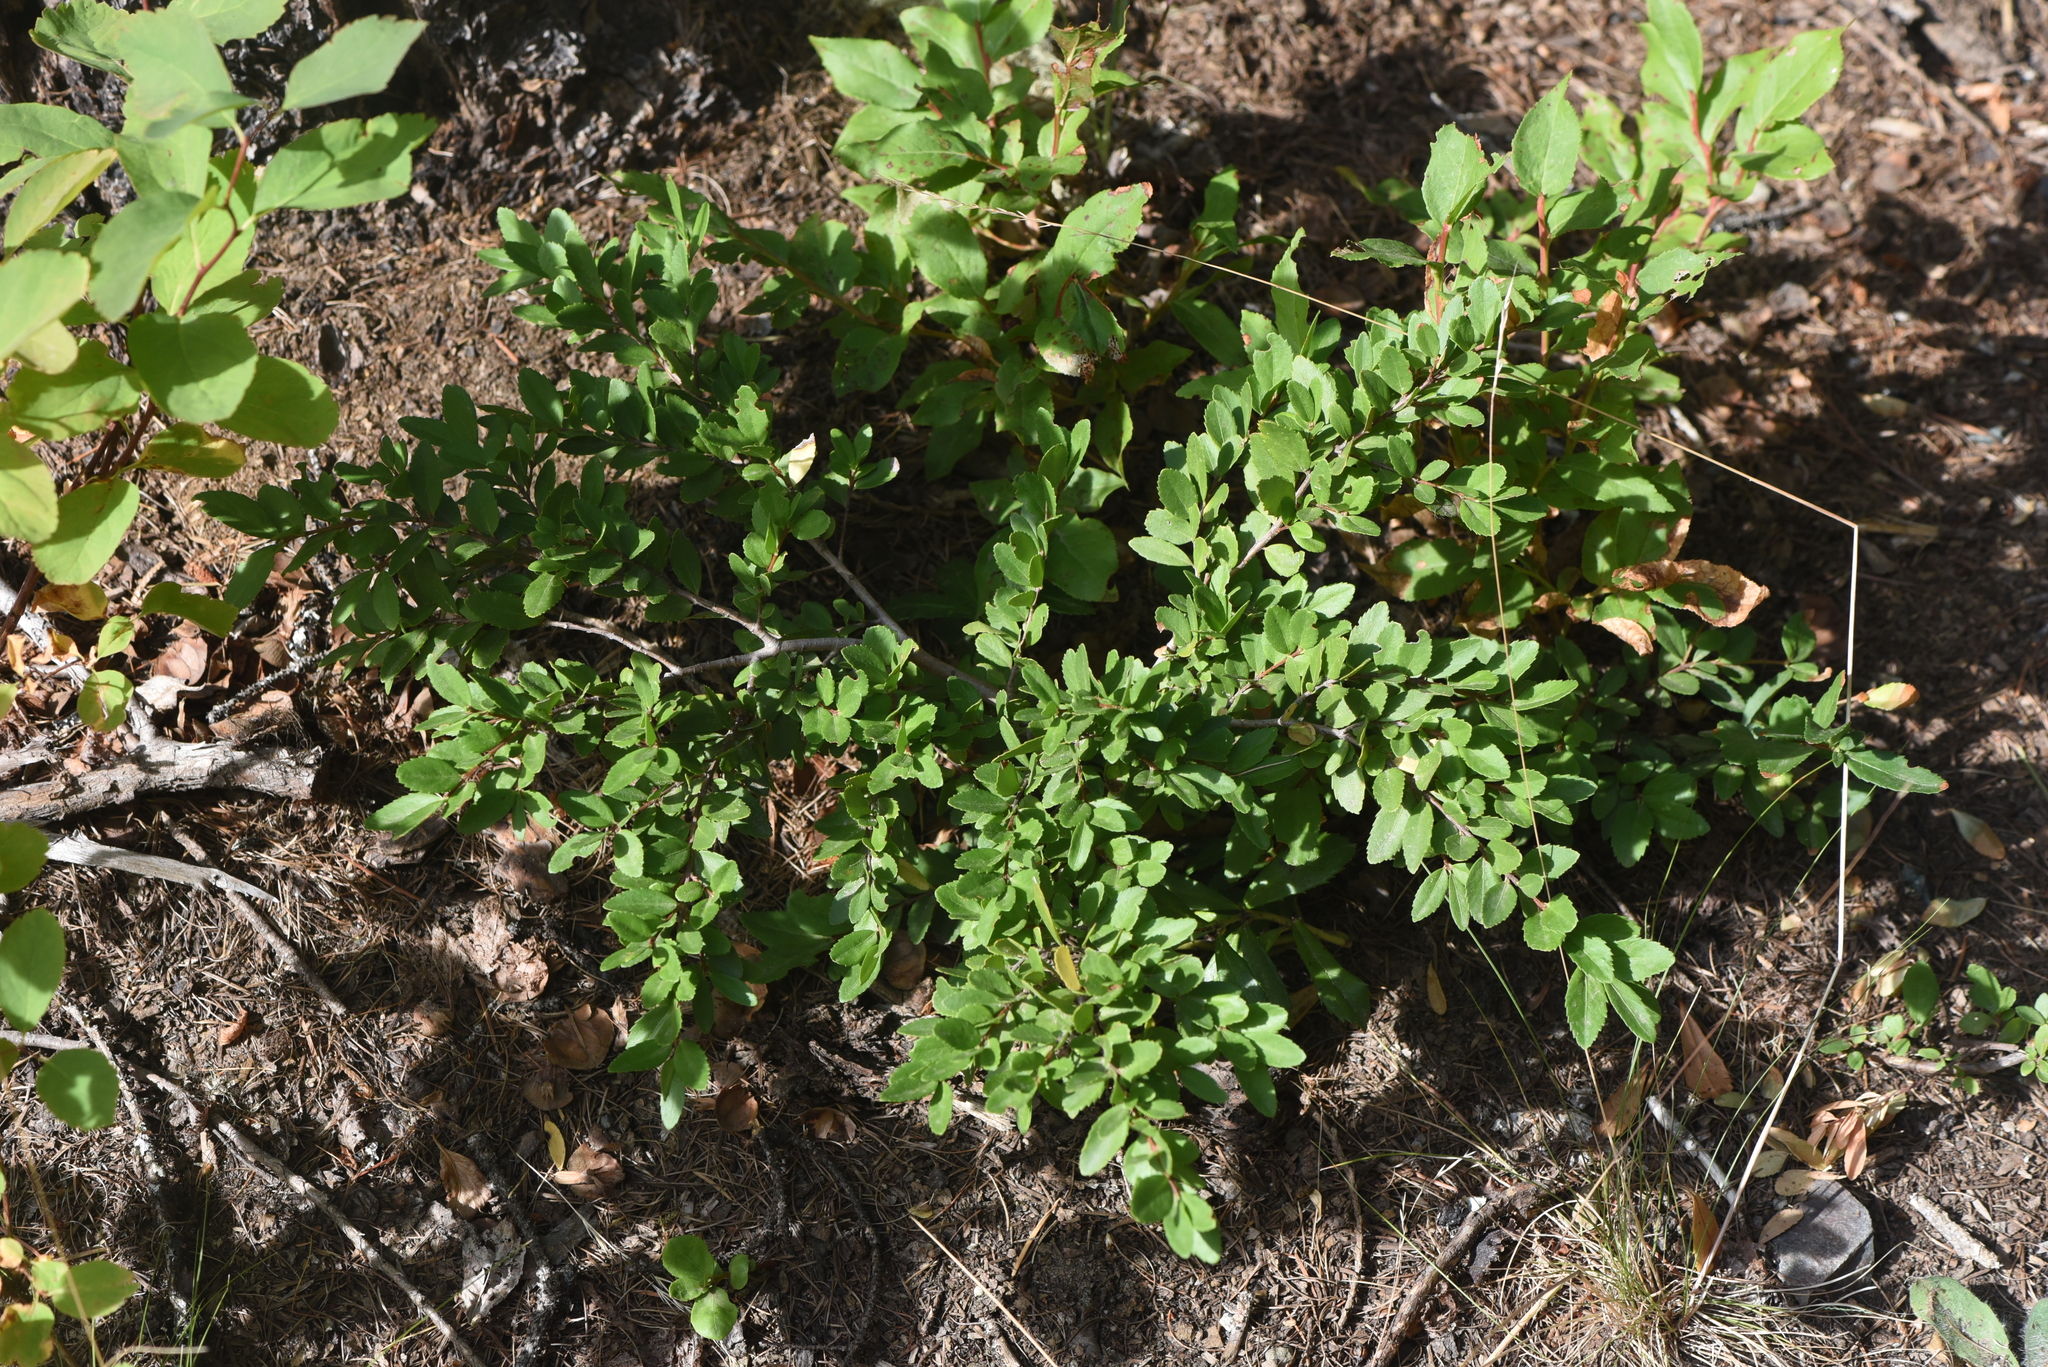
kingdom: Plantae
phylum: Tracheophyta
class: Magnoliopsida
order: Celastrales
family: Celastraceae
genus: Paxistima
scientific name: Paxistima myrsinites
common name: Mountain-lover
